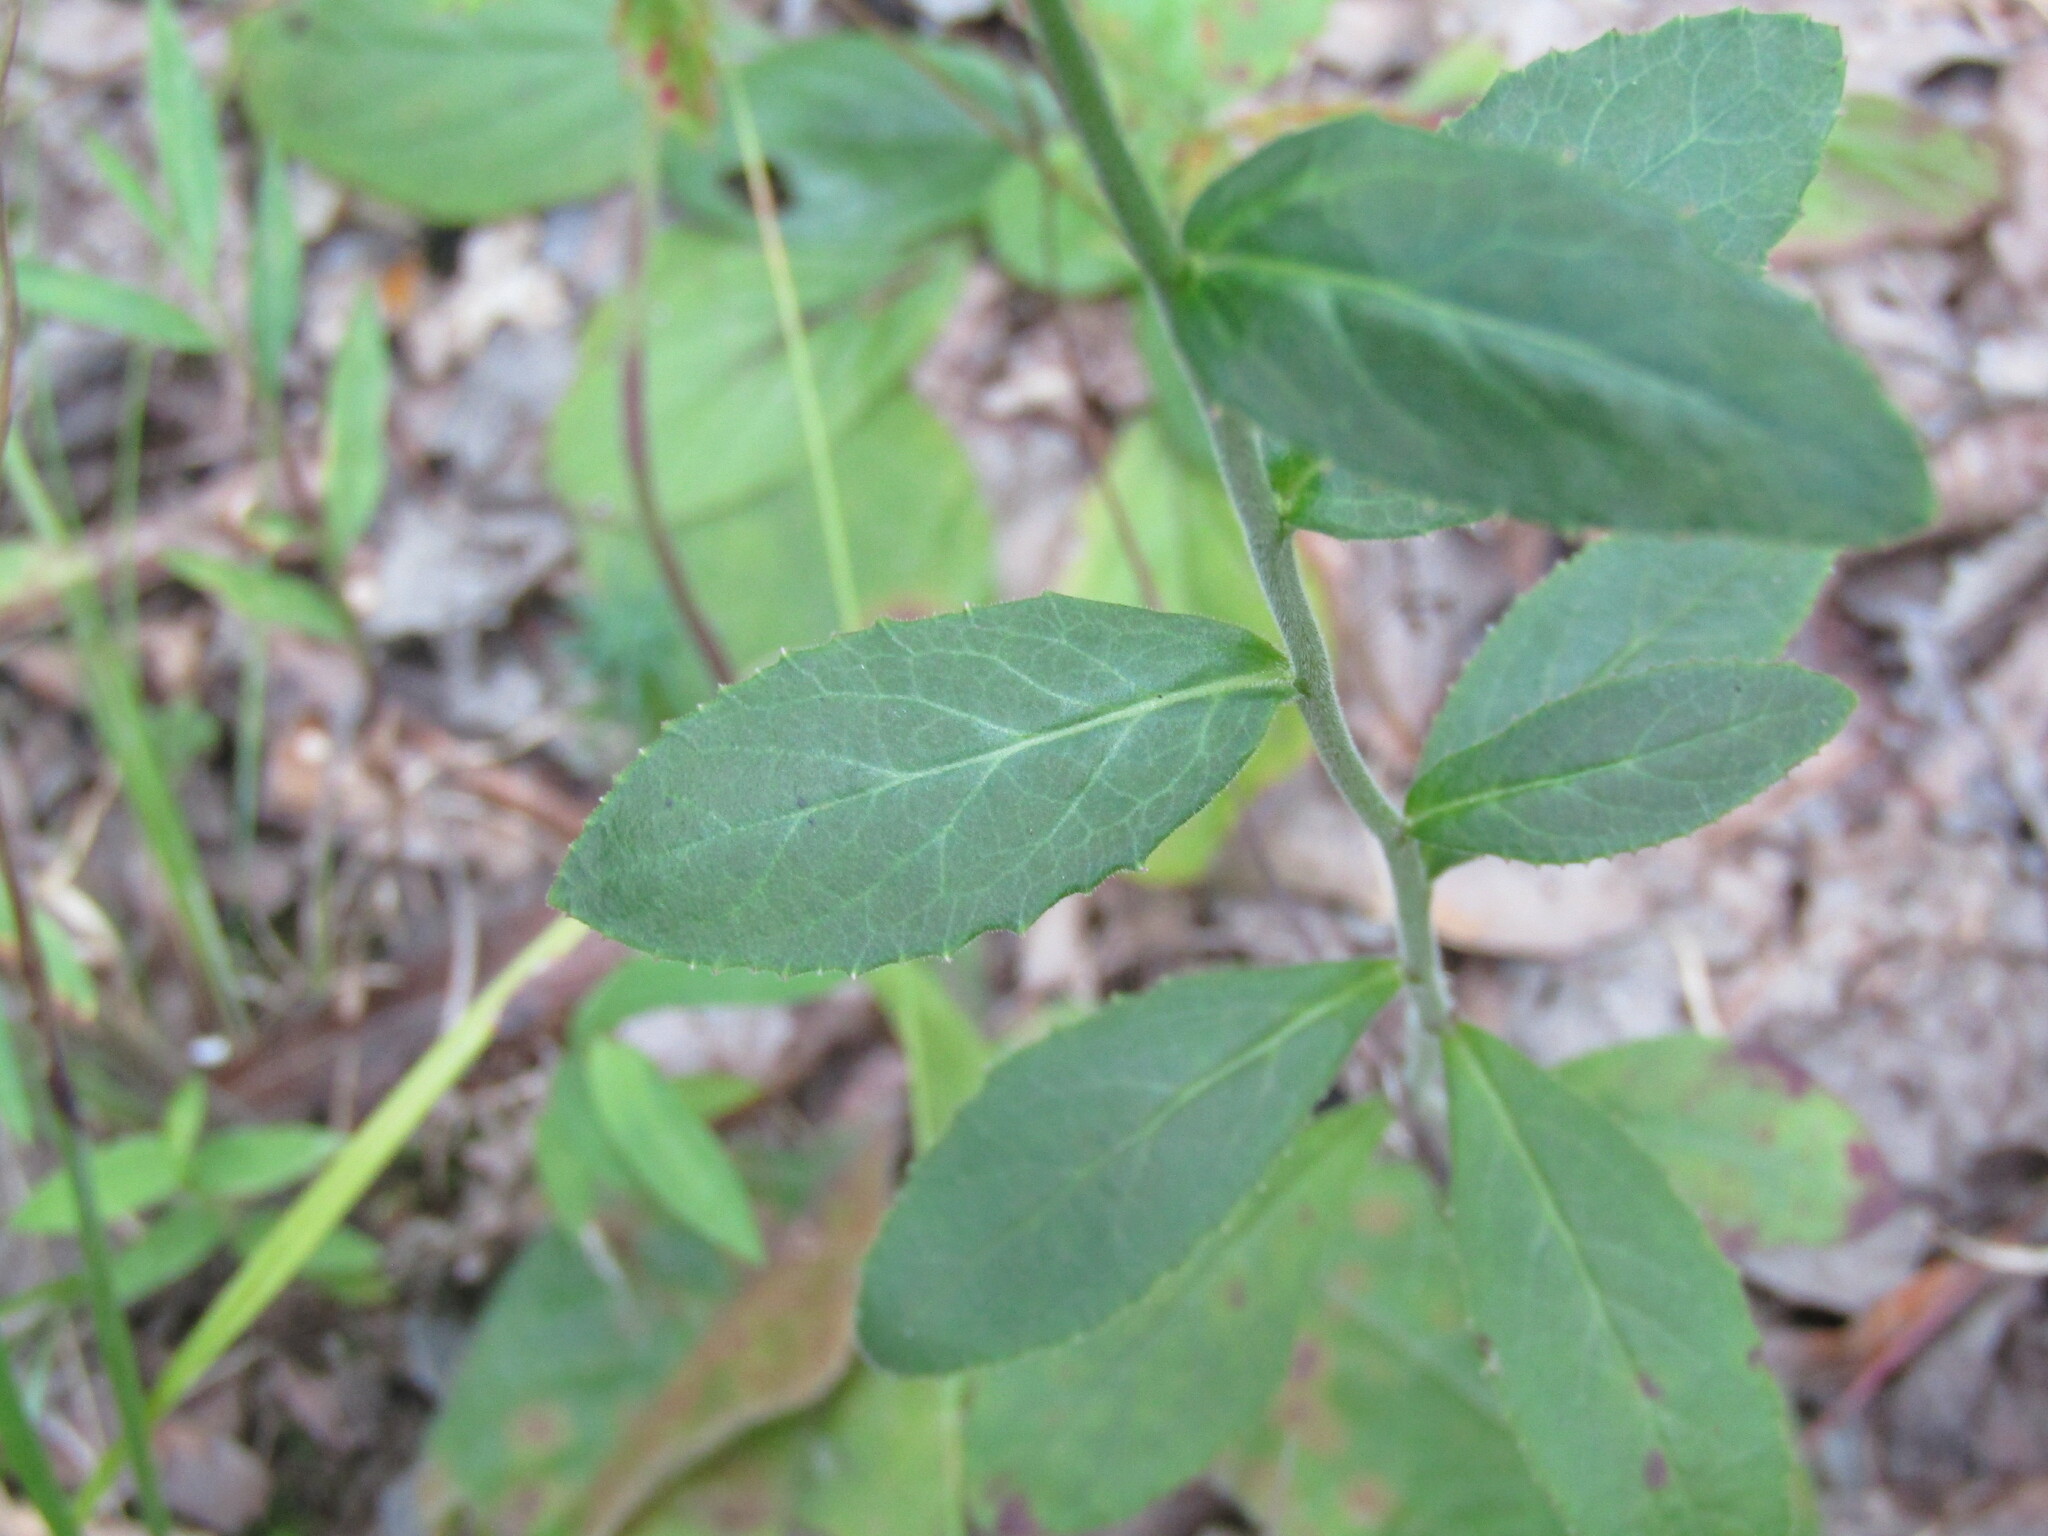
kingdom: Plantae
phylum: Tracheophyta
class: Magnoliopsida
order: Asterales
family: Campanulaceae
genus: Lobelia
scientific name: Lobelia inflata
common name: Indian tobacco
